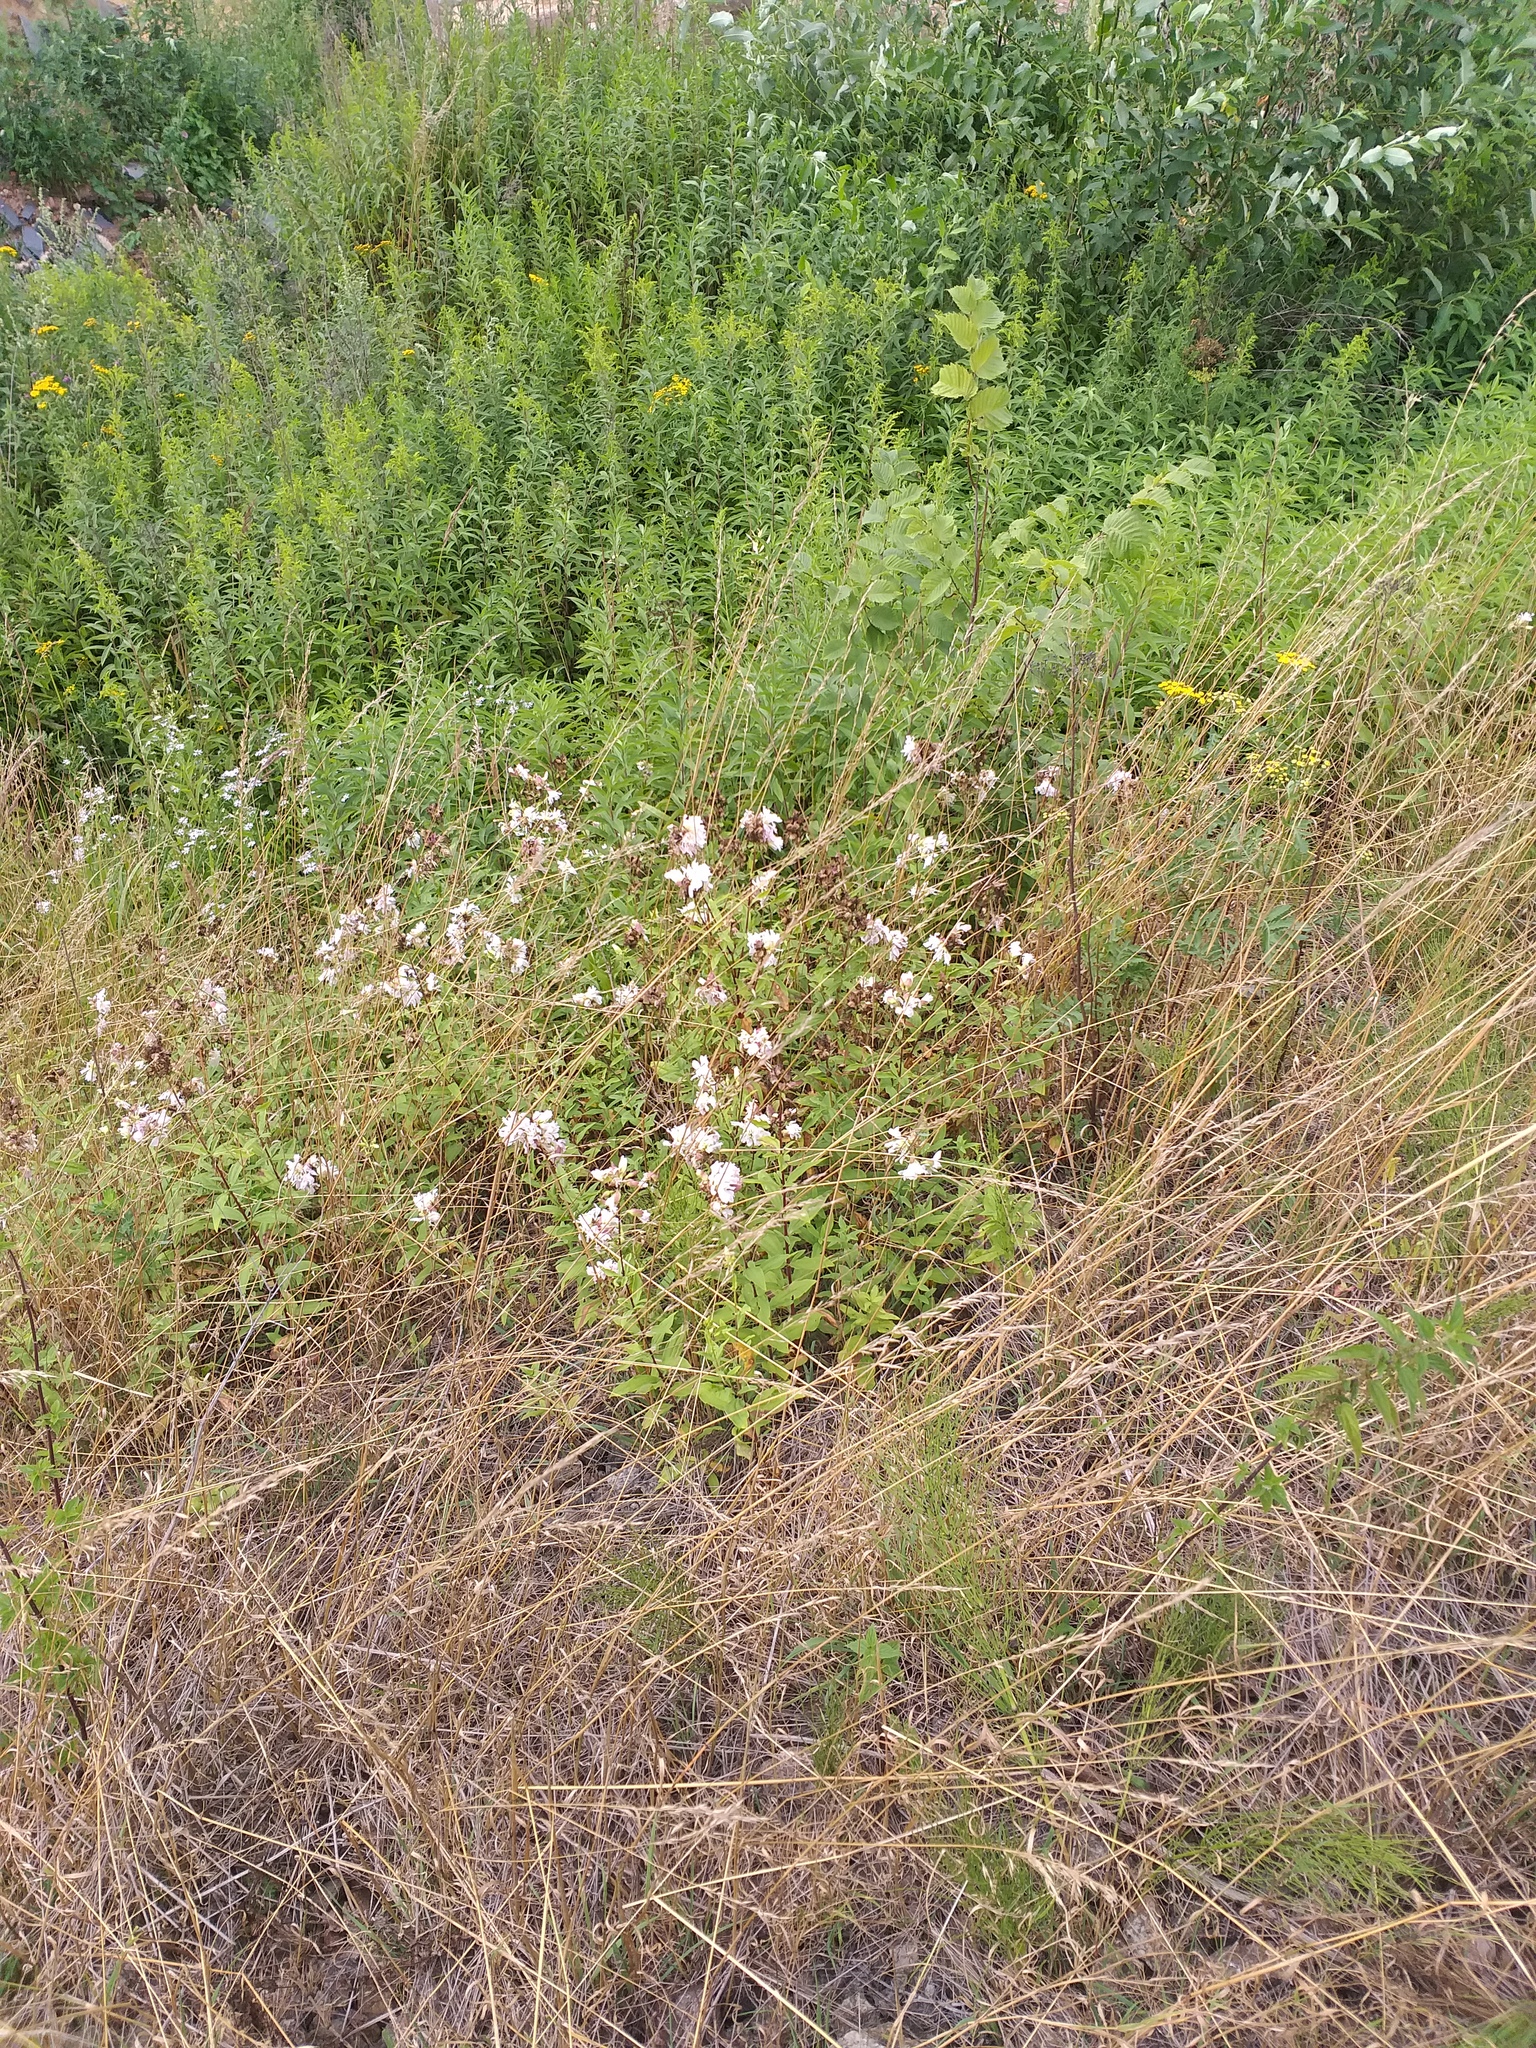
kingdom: Plantae
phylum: Tracheophyta
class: Magnoliopsida
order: Caryophyllales
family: Caryophyllaceae
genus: Saponaria
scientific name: Saponaria officinalis
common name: Soapwort
